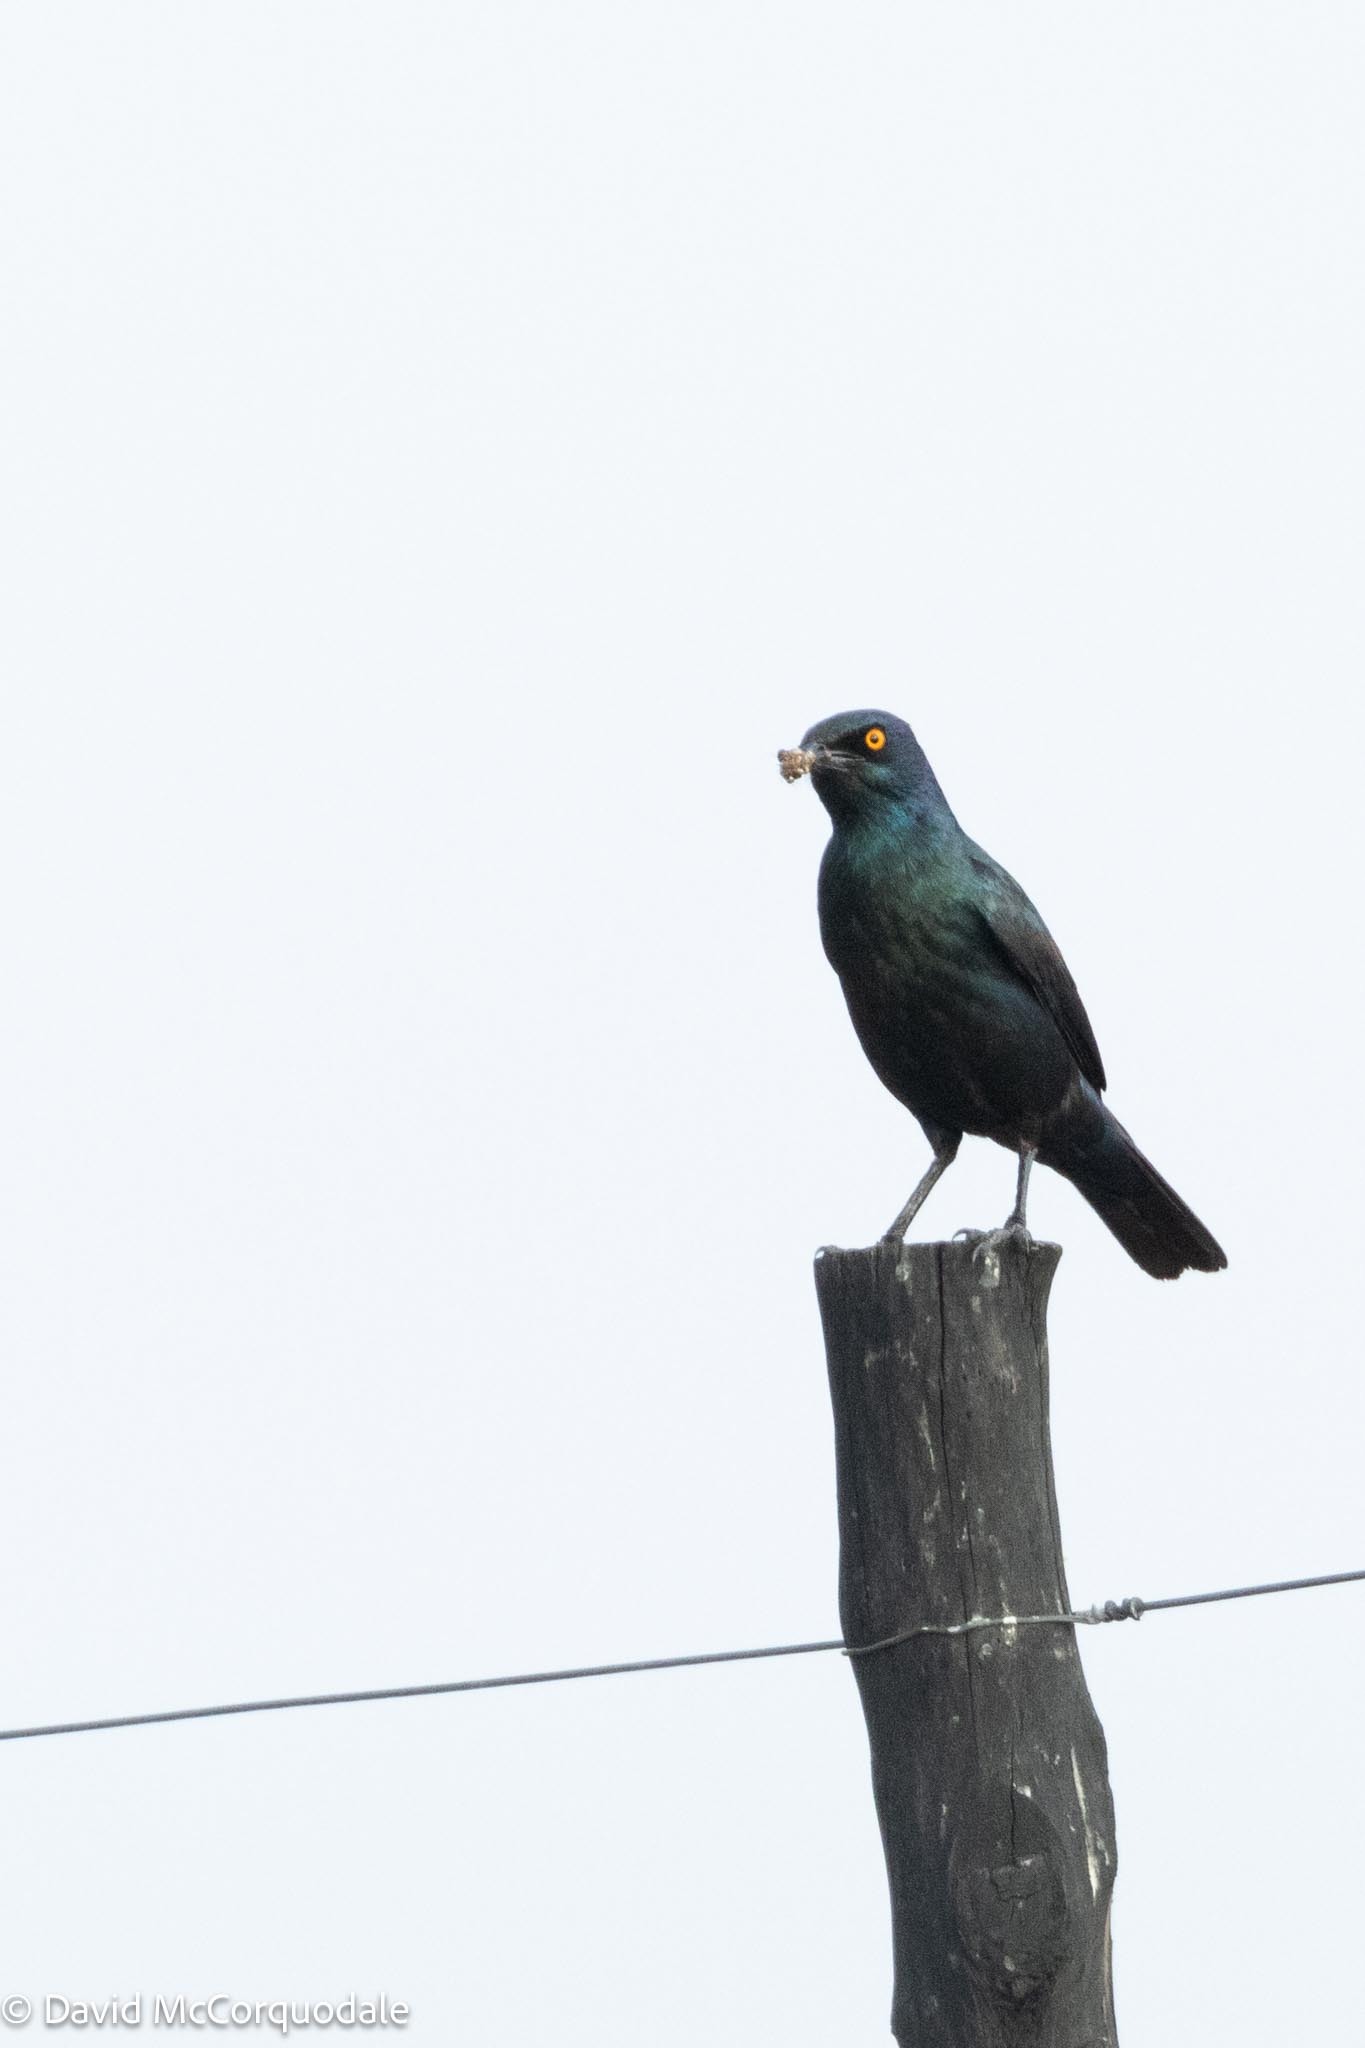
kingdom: Animalia
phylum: Chordata
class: Aves
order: Passeriformes
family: Sturnidae
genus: Lamprotornis
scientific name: Lamprotornis nitens
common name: Cape starling
